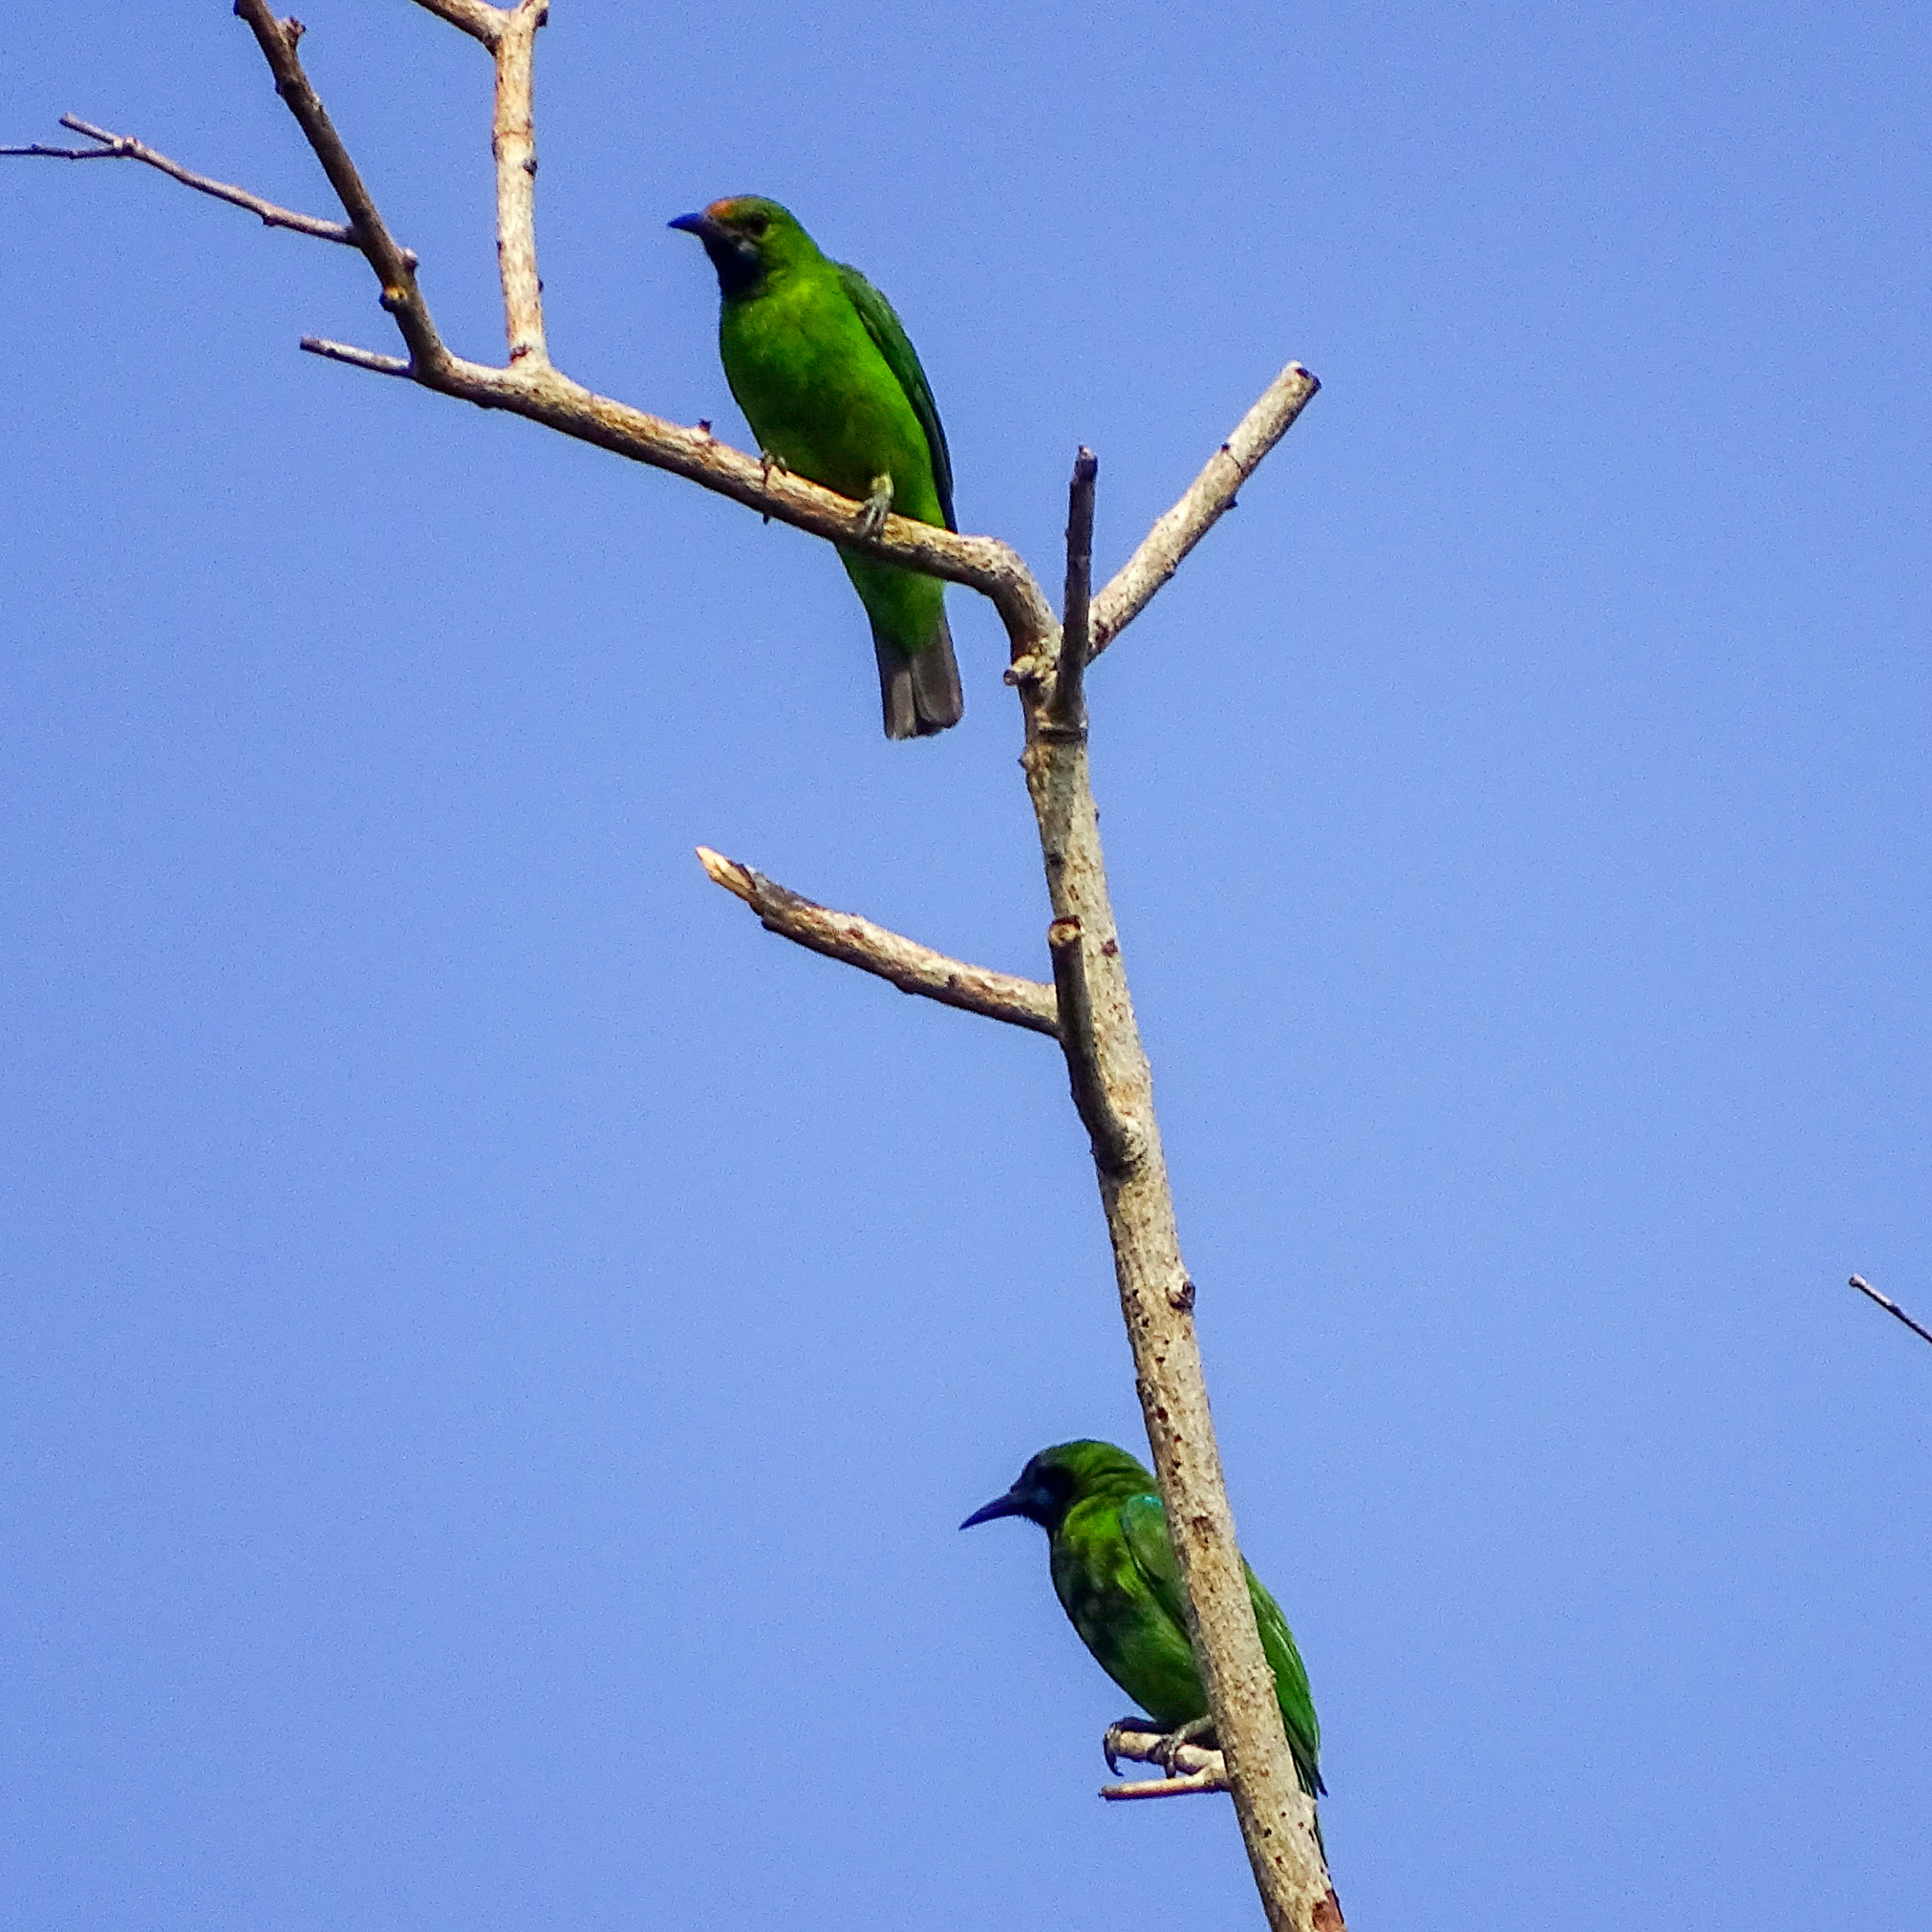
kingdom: Animalia
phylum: Chordata
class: Aves
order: Passeriformes
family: Chloropseidae
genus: Chloropsis
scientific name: Chloropsis aurifrons
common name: Golden-fronted leafbird
